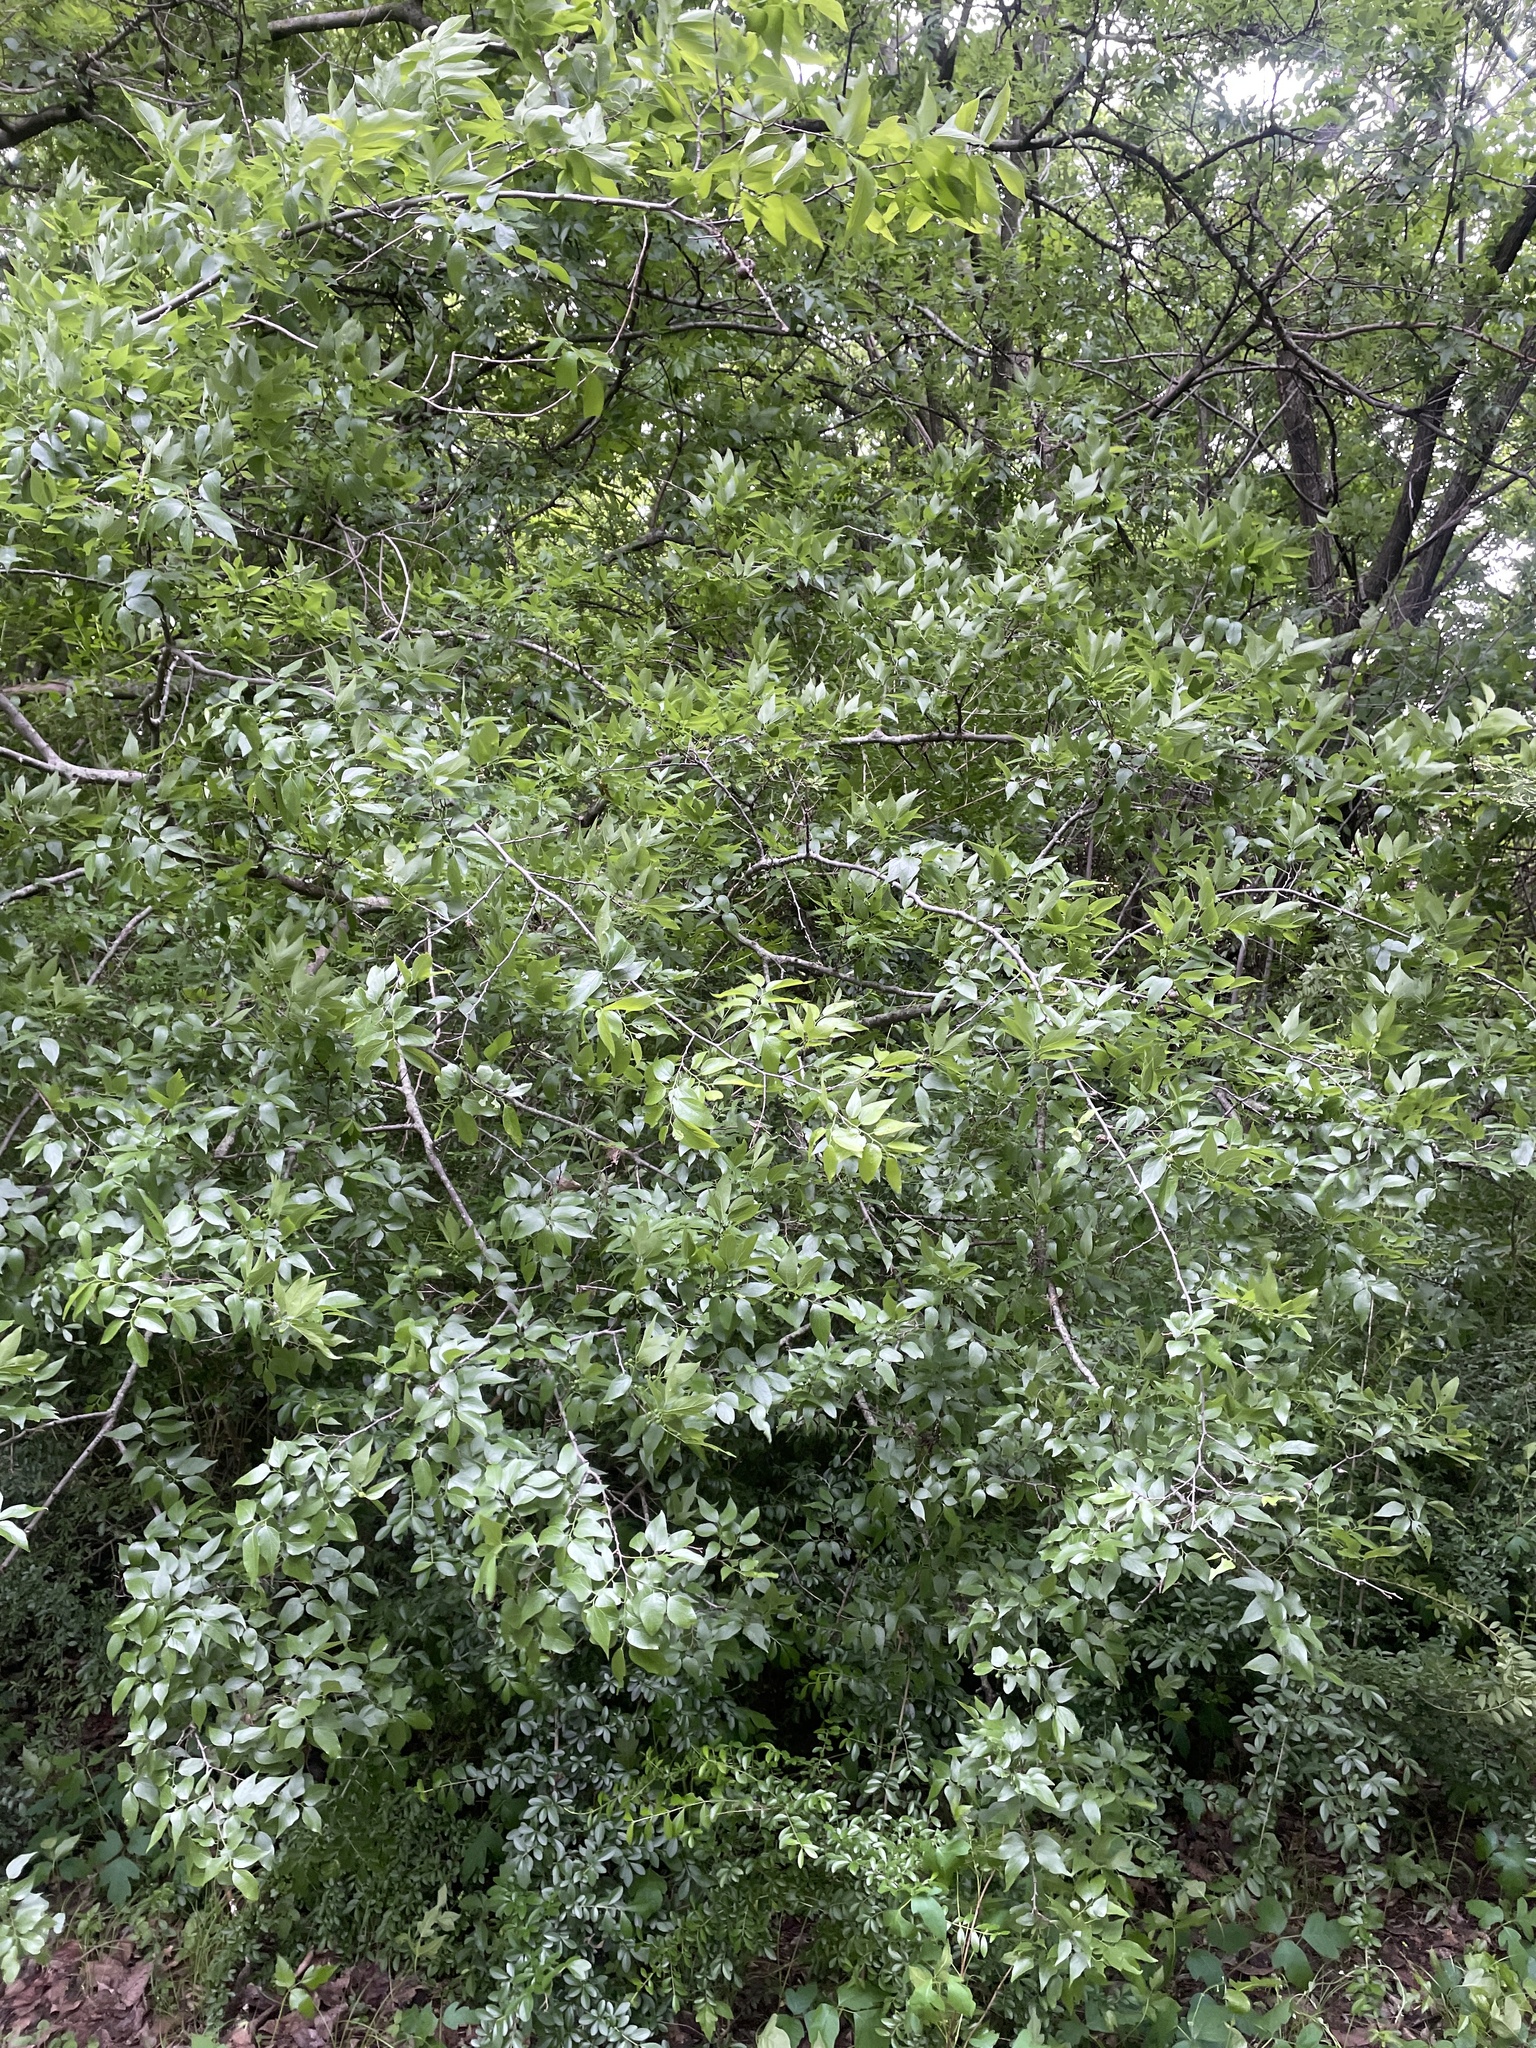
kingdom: Plantae
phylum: Tracheophyta
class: Magnoliopsida
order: Rosales
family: Cannabaceae
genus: Celtis
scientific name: Celtis laevigata
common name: Sugarberry
